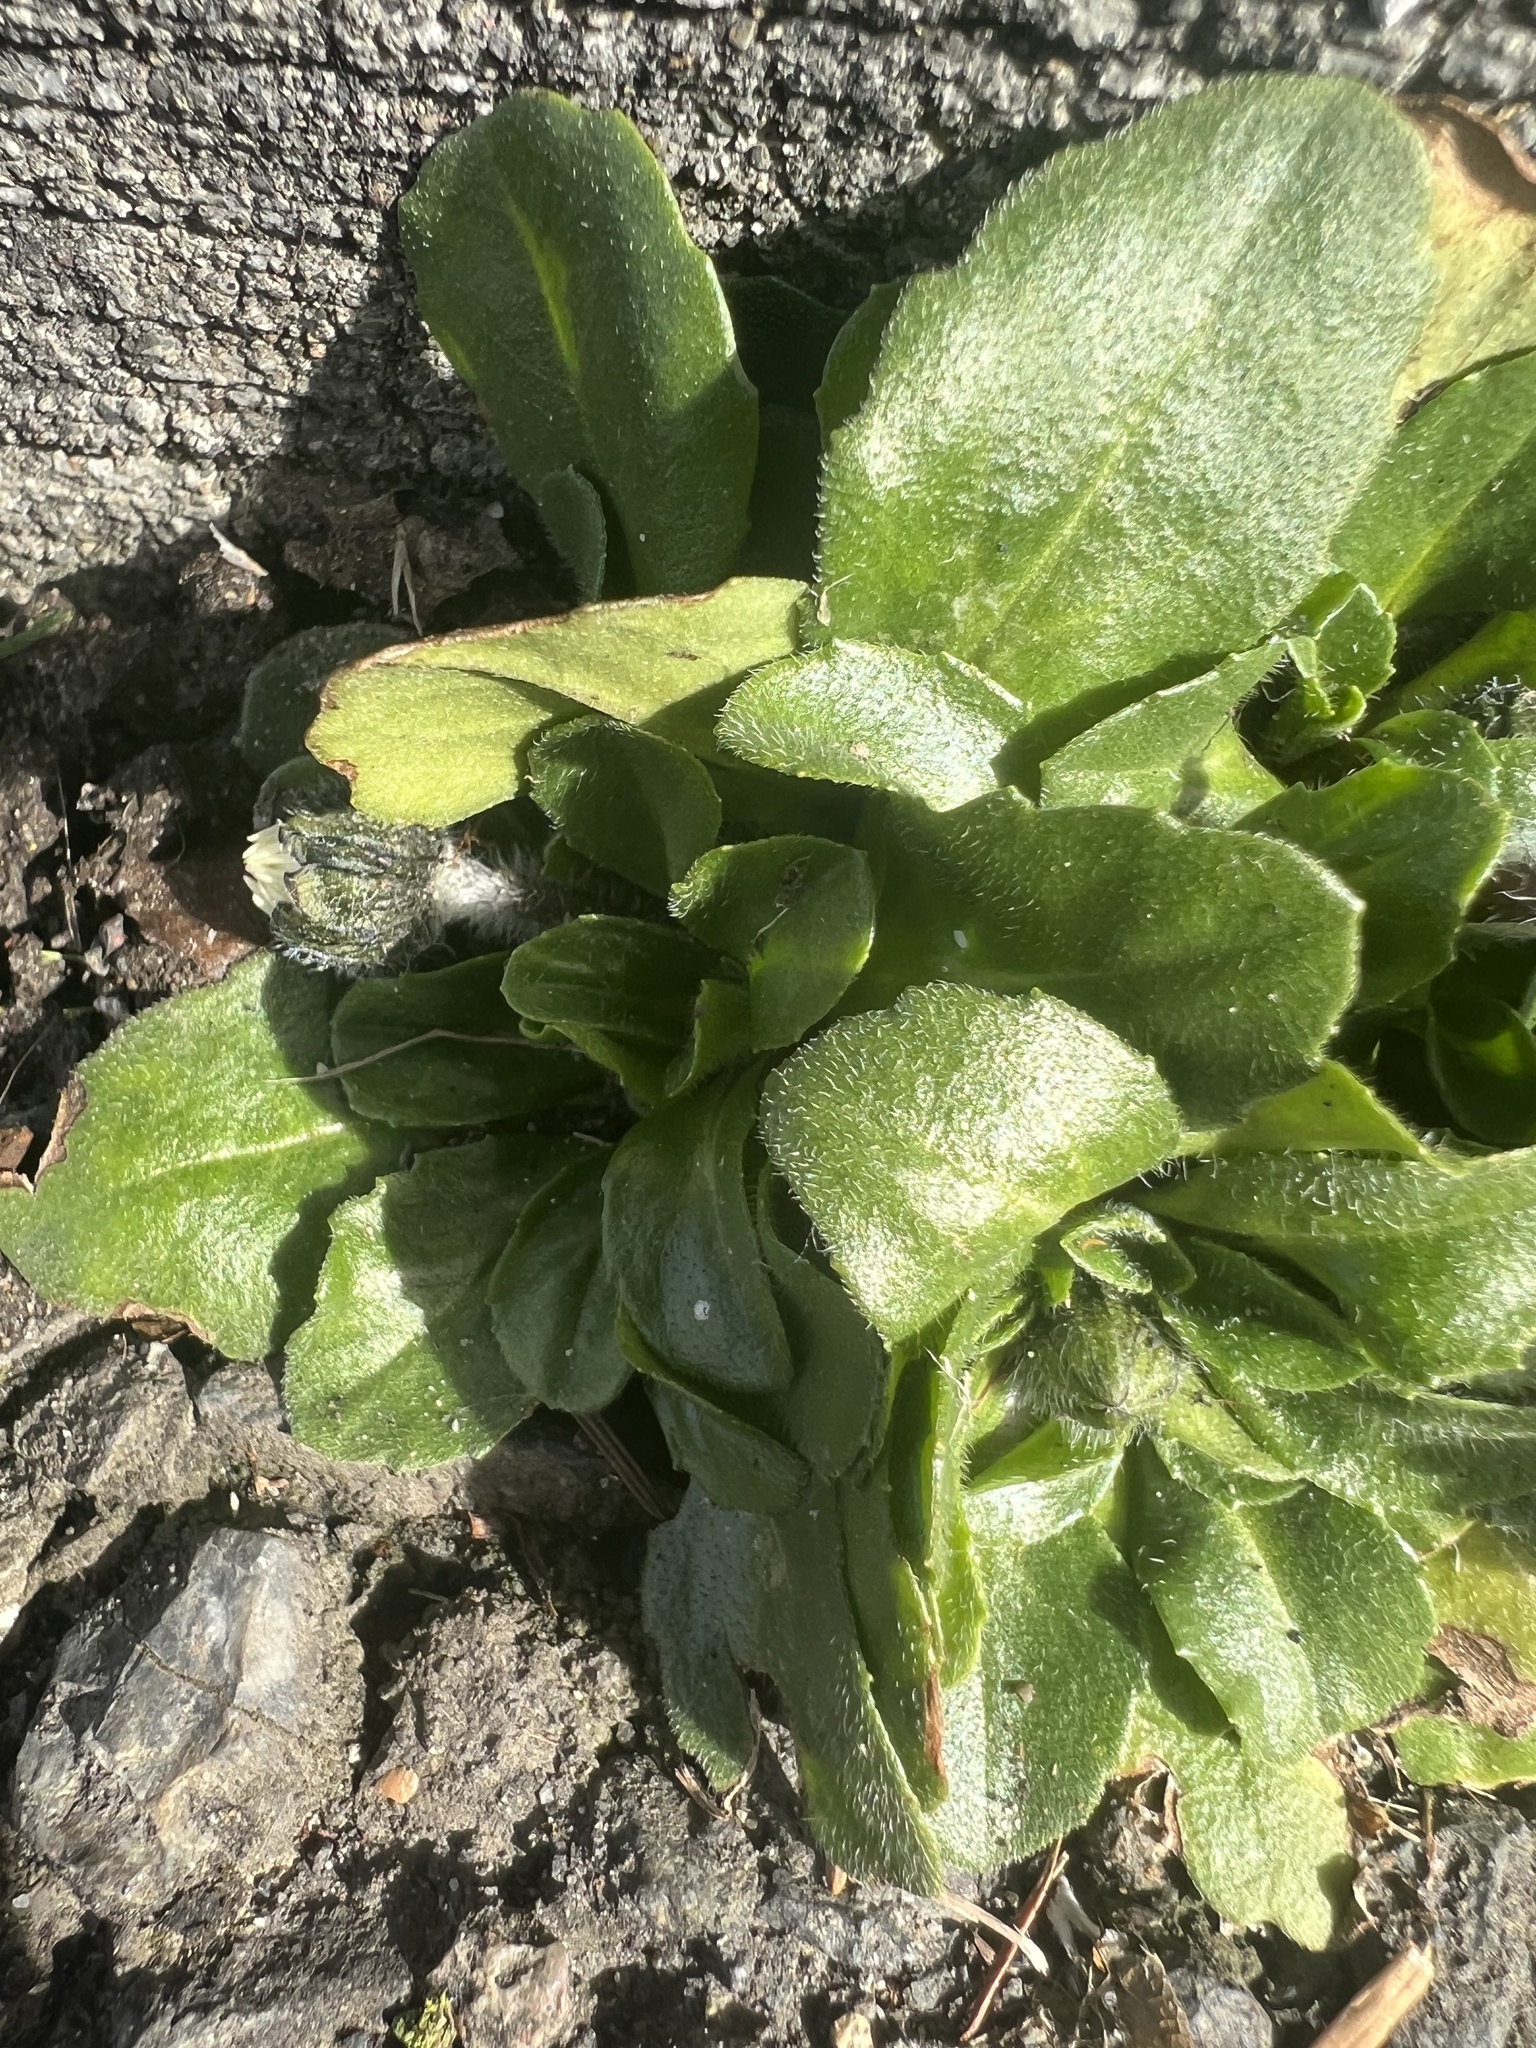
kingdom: Plantae
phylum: Tracheophyta
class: Magnoliopsida
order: Asterales
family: Asteraceae
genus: Bellis
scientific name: Bellis perennis
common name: Lawndaisy
